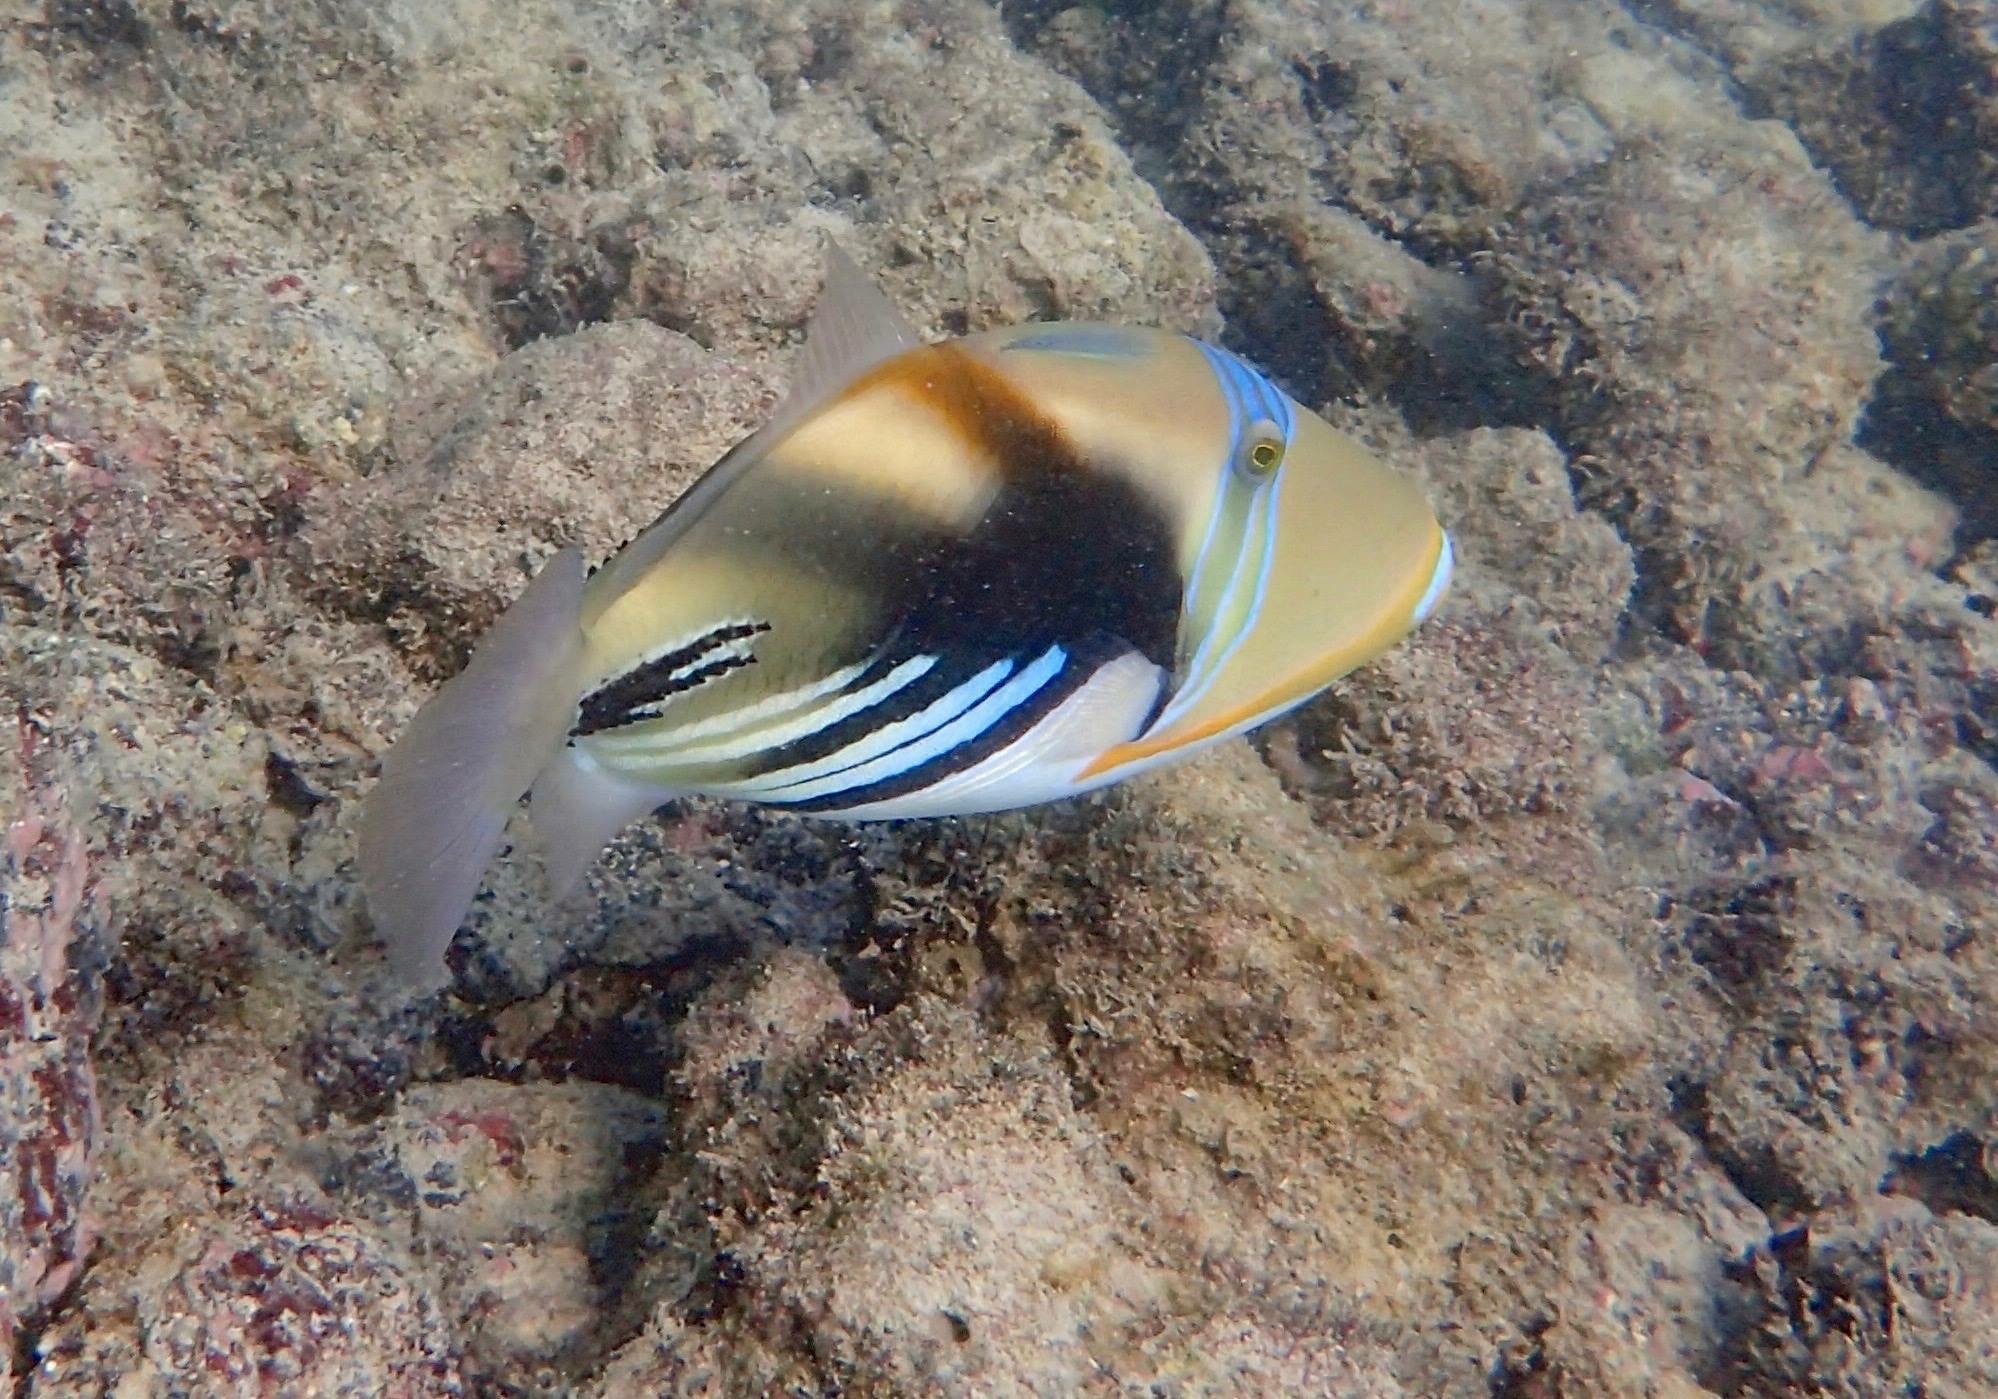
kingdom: Animalia
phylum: Chordata
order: Tetraodontiformes
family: Balistidae
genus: Rhinecanthus
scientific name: Rhinecanthus aculeatus
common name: White-banded triggerfish
